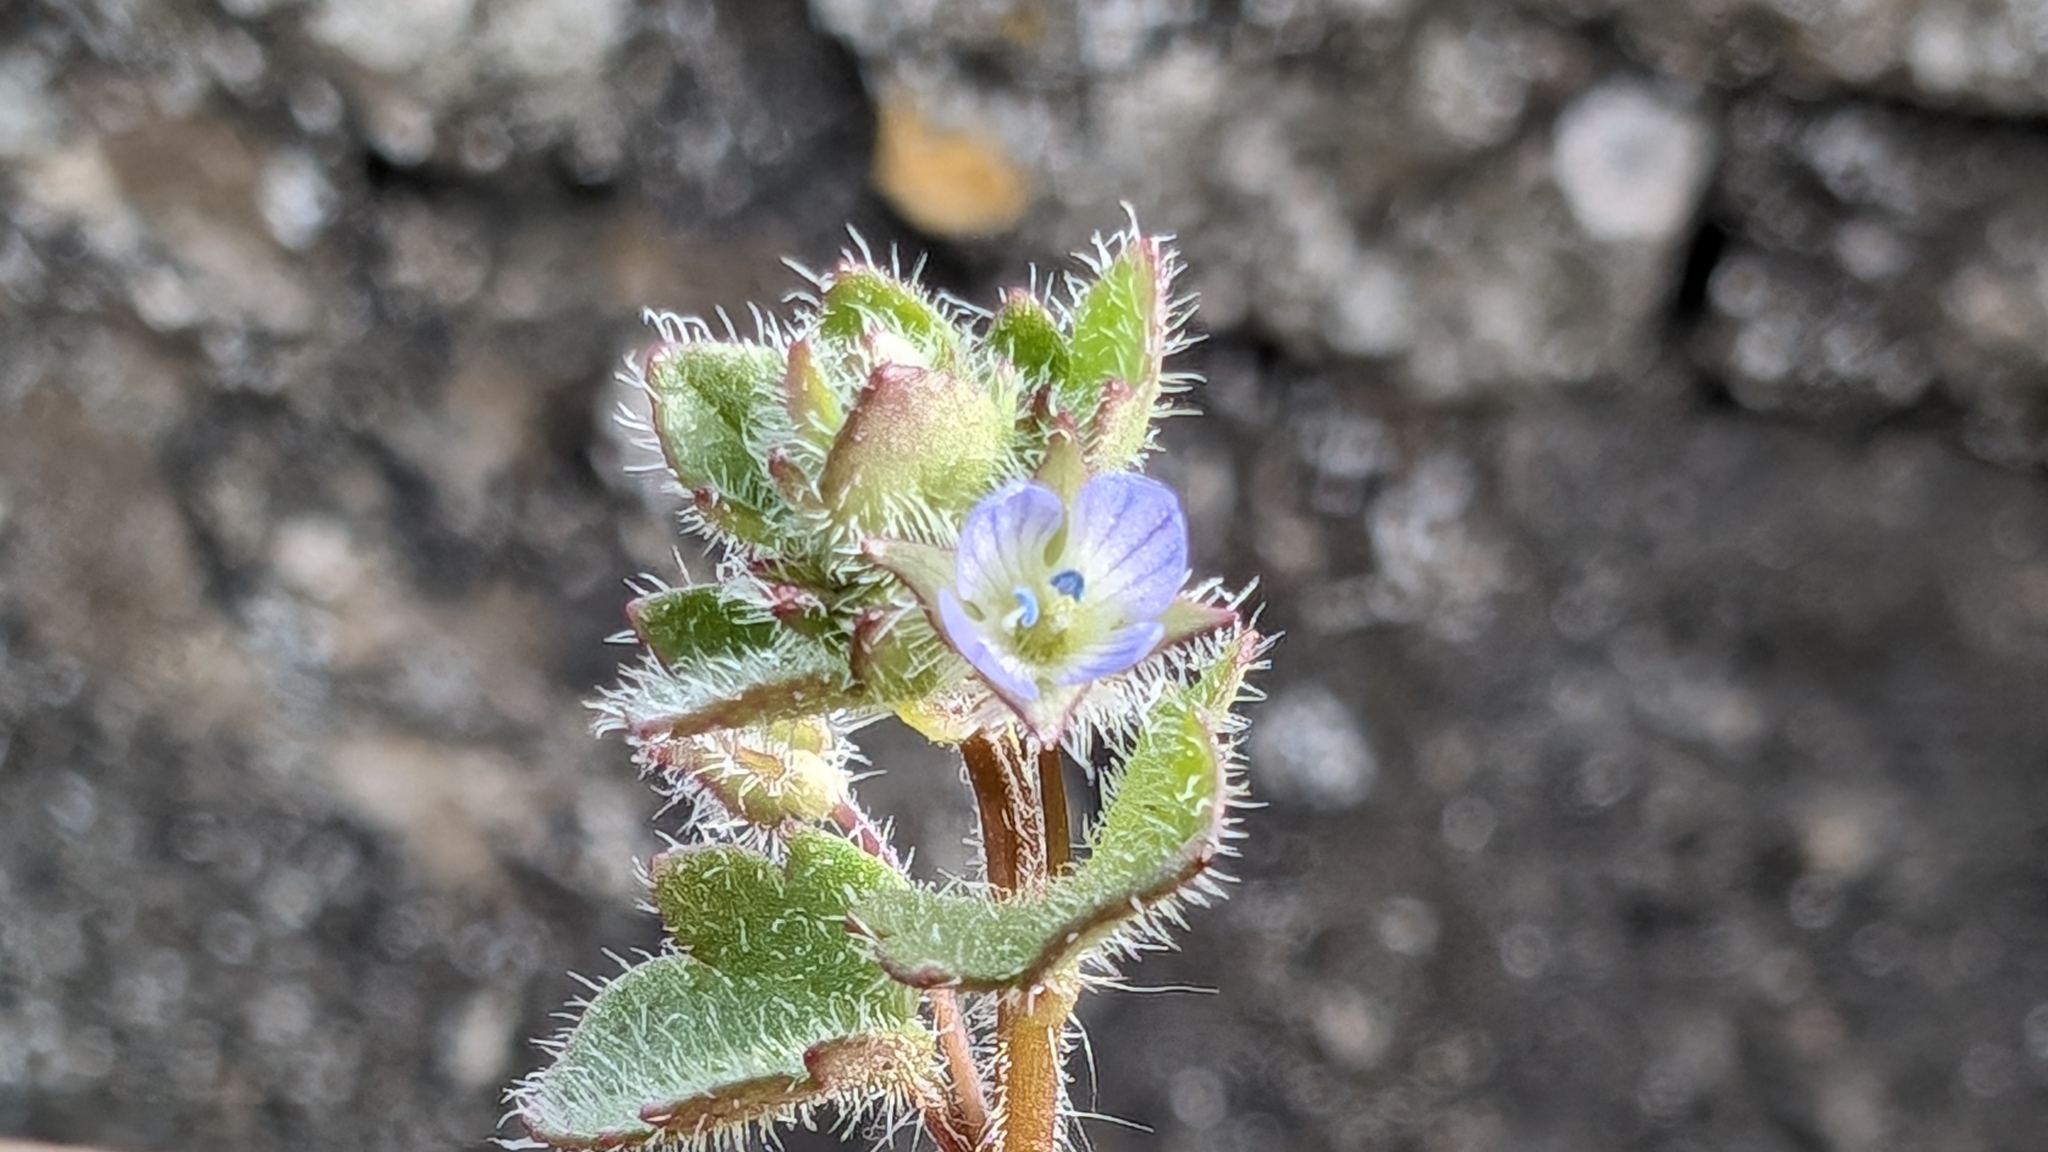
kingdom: Plantae
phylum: Tracheophyta
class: Magnoliopsida
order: Lamiales
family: Plantaginaceae
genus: Veronica
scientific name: Veronica hederifolia
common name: Ivy-leaved speedwell
